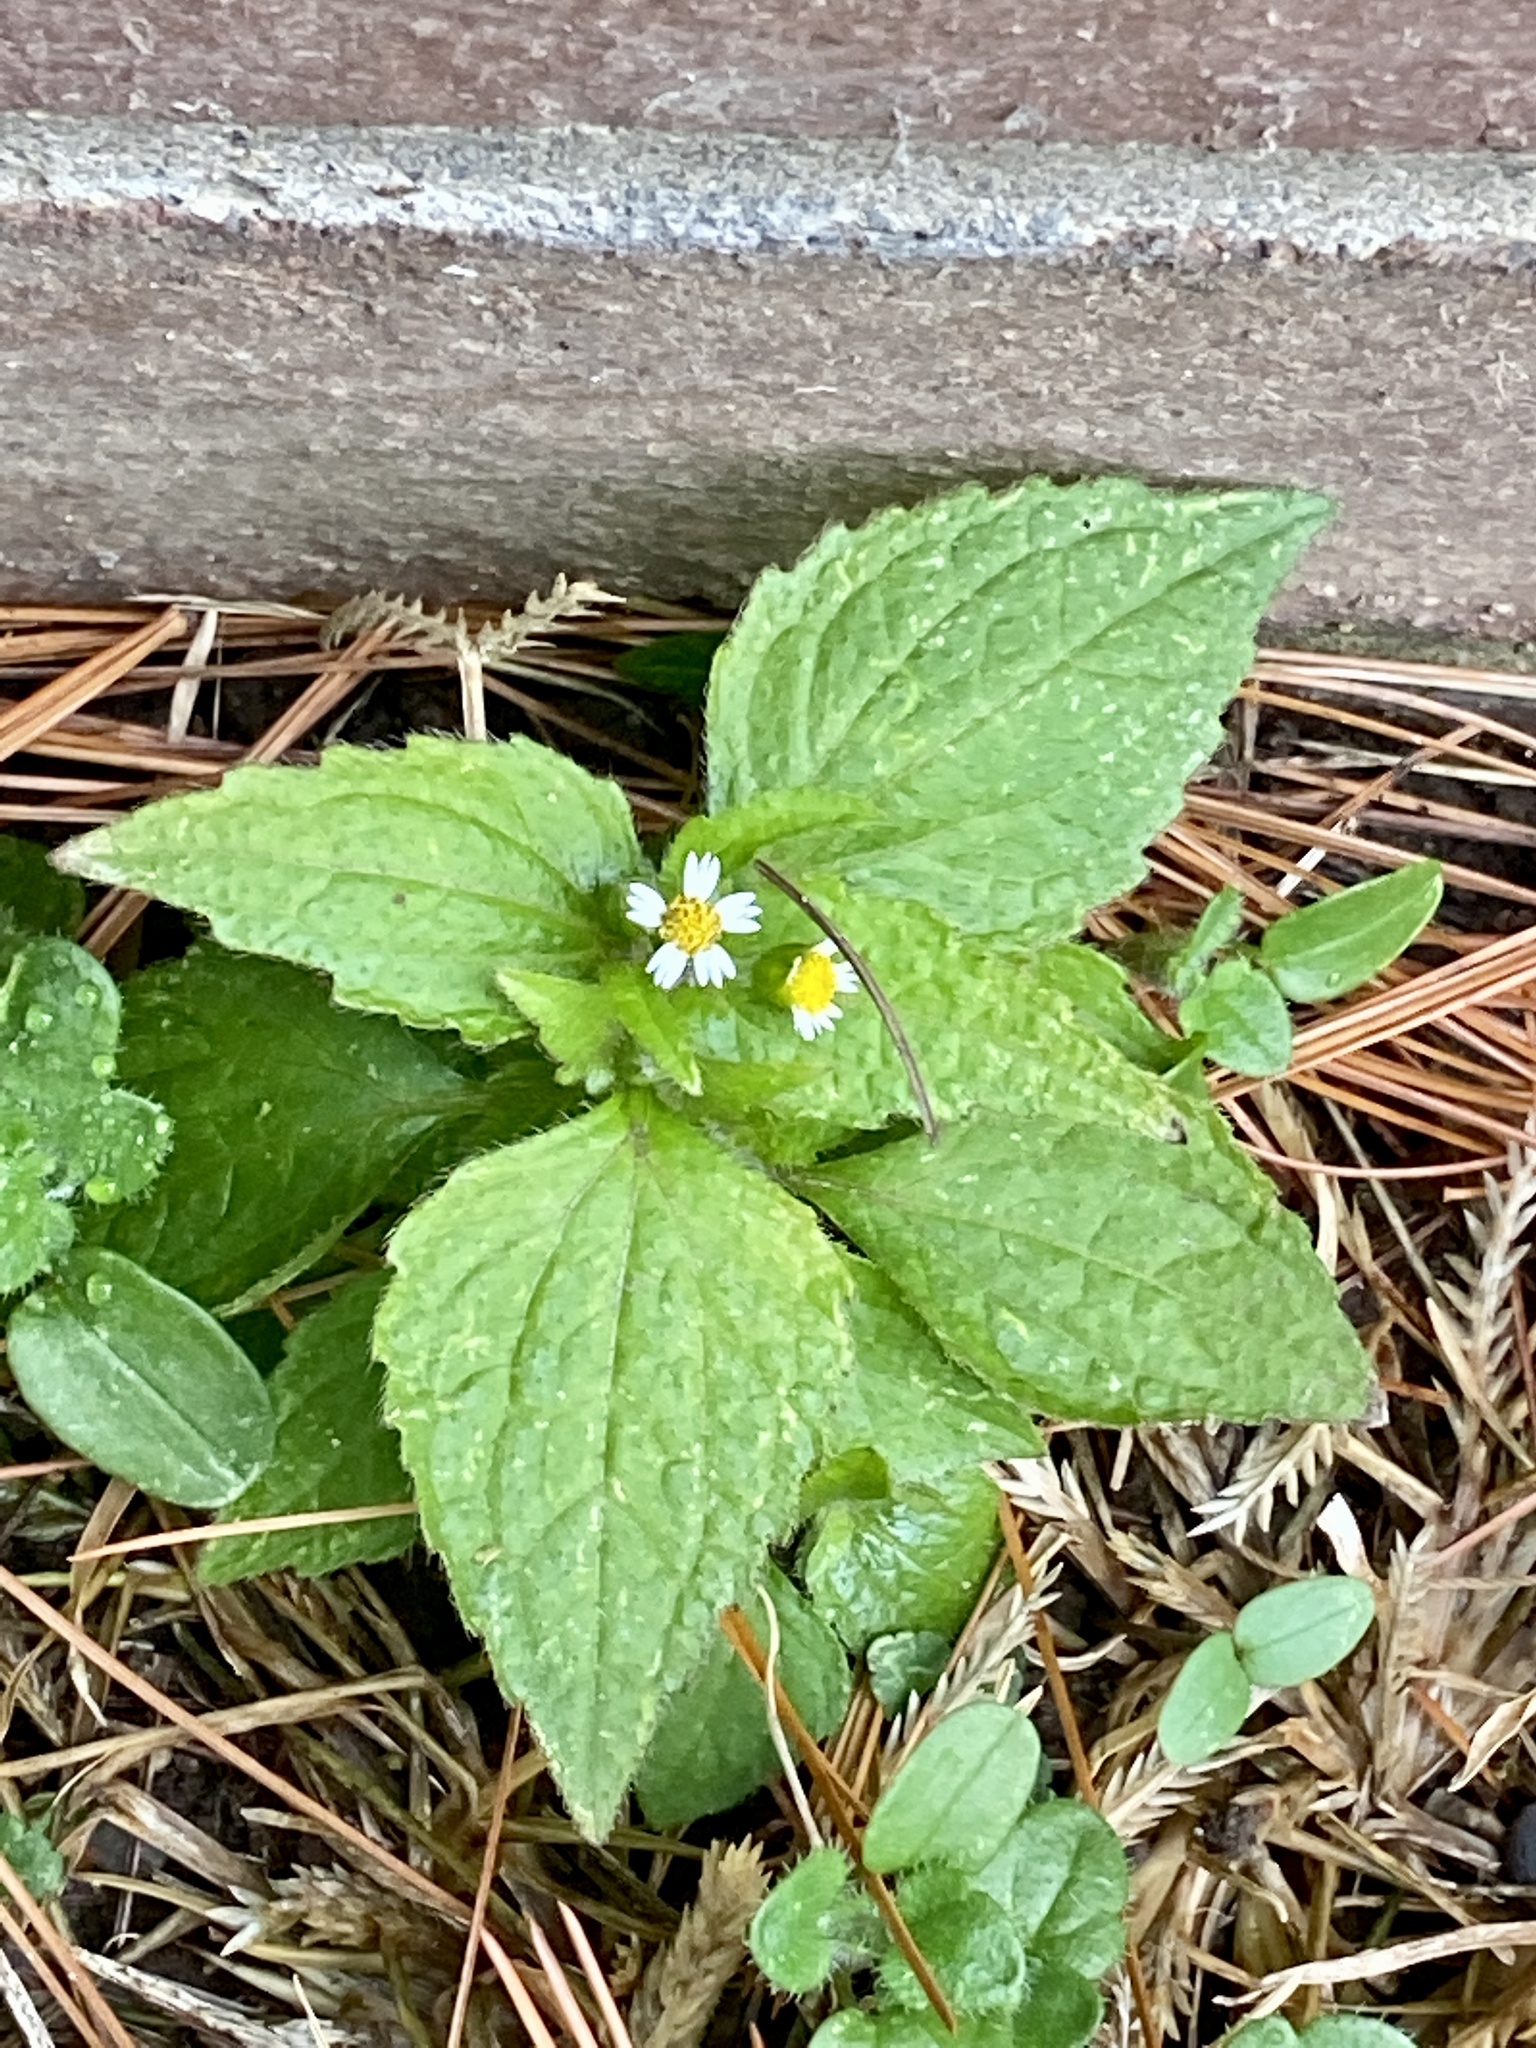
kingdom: Plantae
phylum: Tracheophyta
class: Magnoliopsida
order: Asterales
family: Asteraceae
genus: Galinsoga
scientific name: Galinsoga quadriradiata
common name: Shaggy soldier
